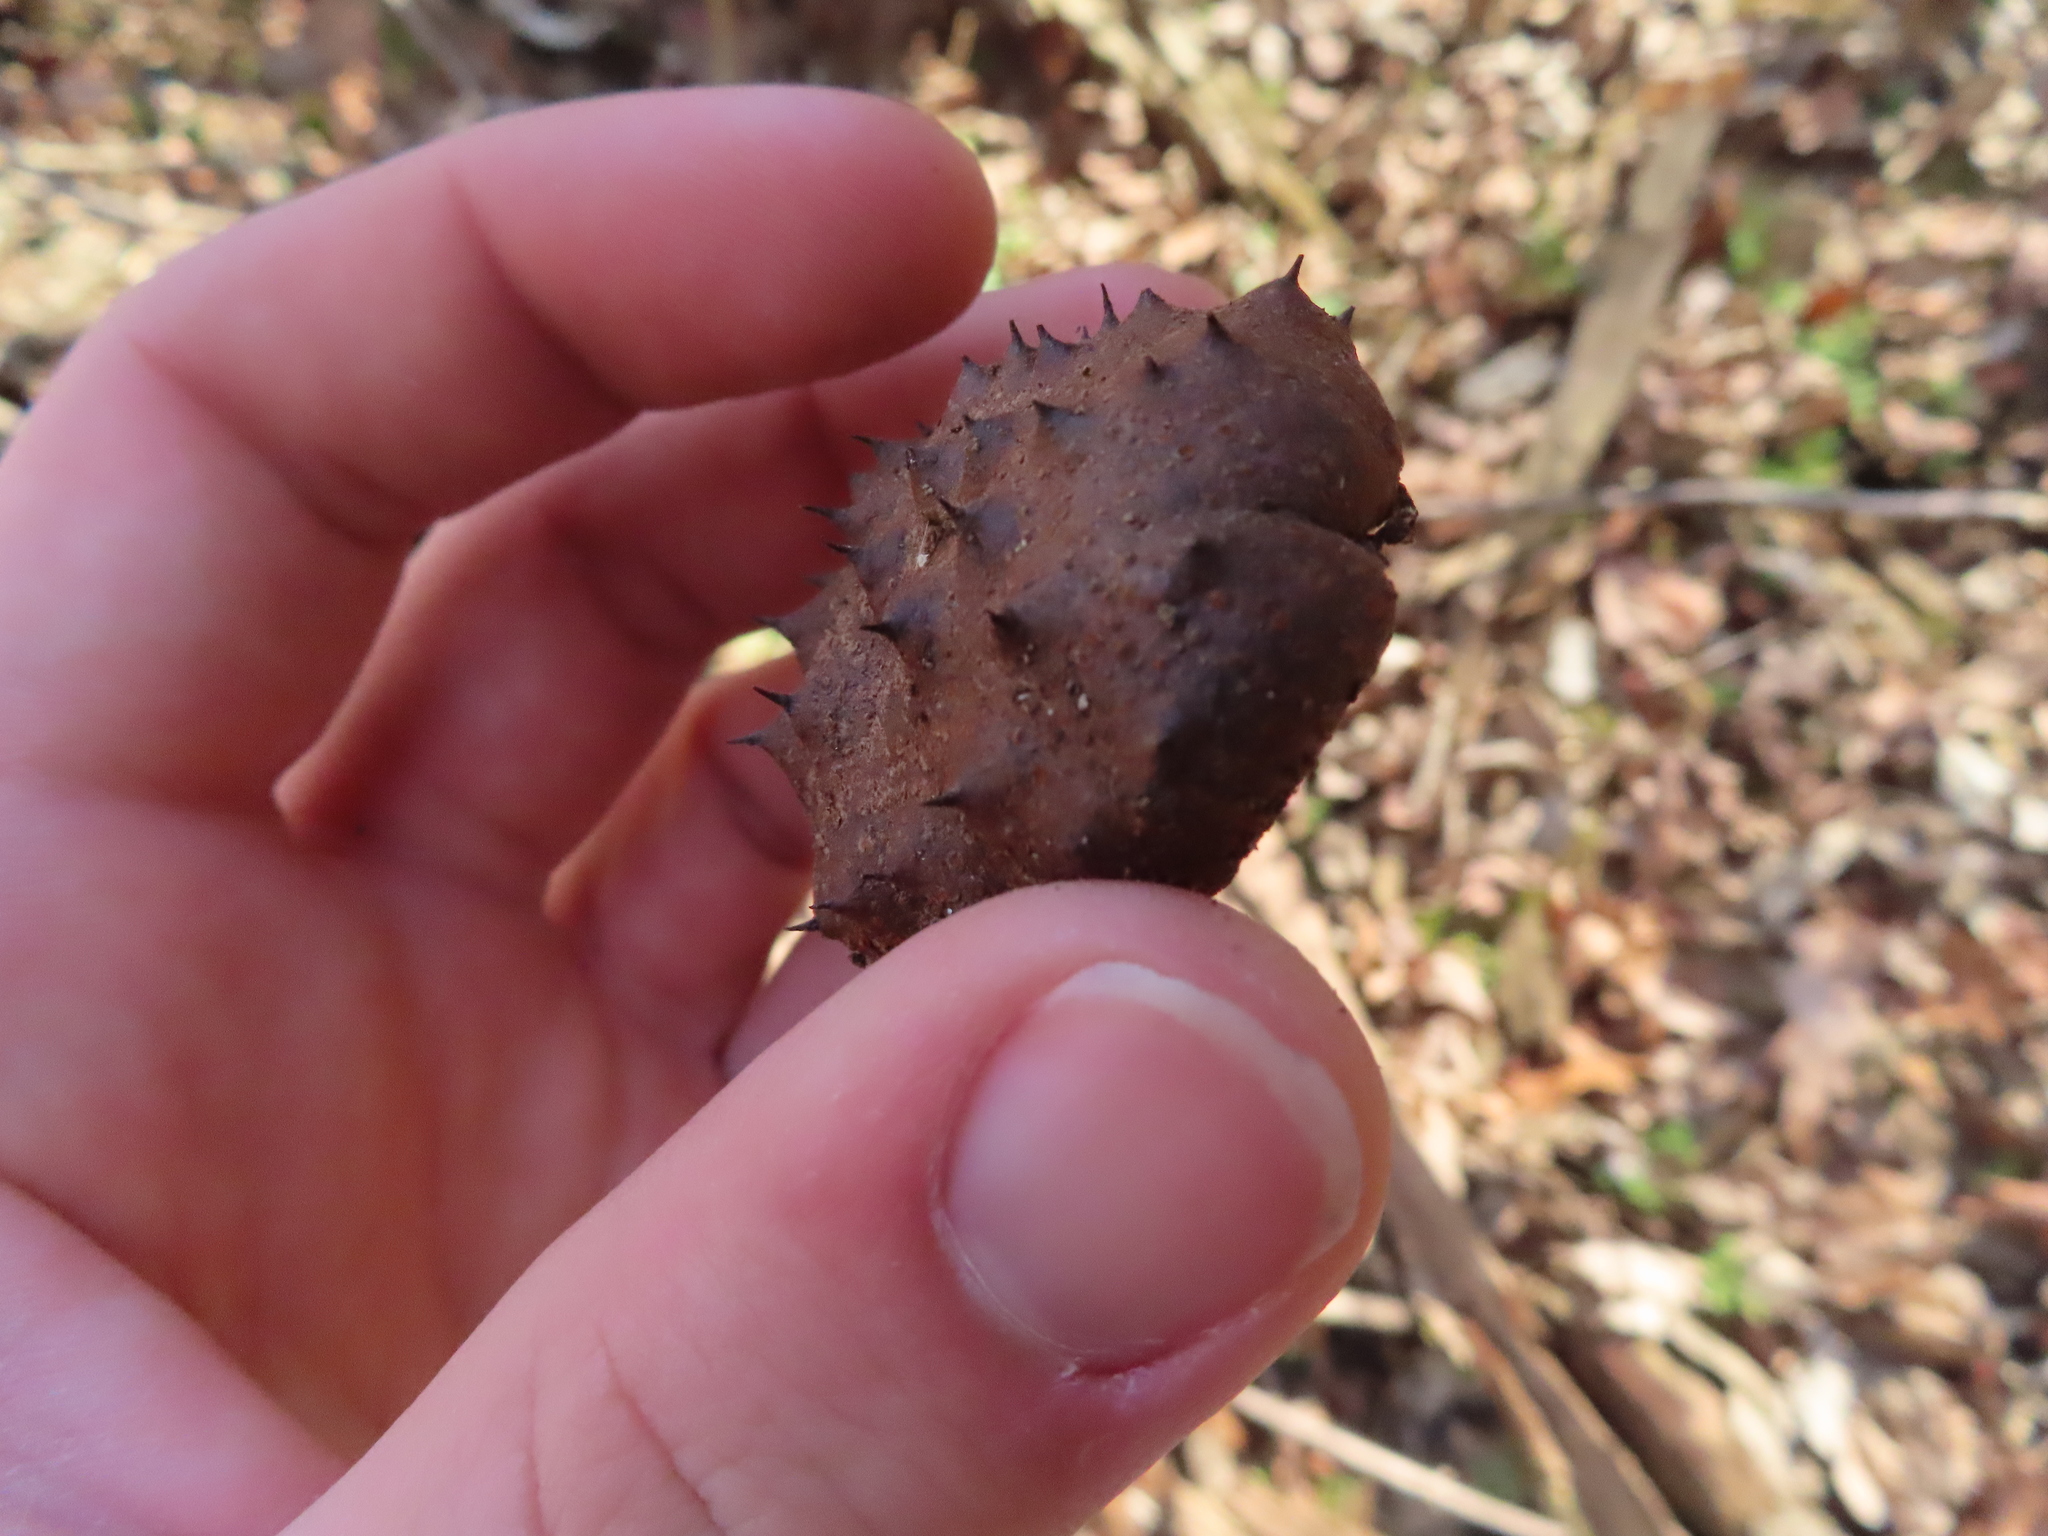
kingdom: Plantae
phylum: Tracheophyta
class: Magnoliopsida
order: Sapindales
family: Sapindaceae
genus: Aesculus
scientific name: Aesculus glabra
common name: Ohio buckeye
